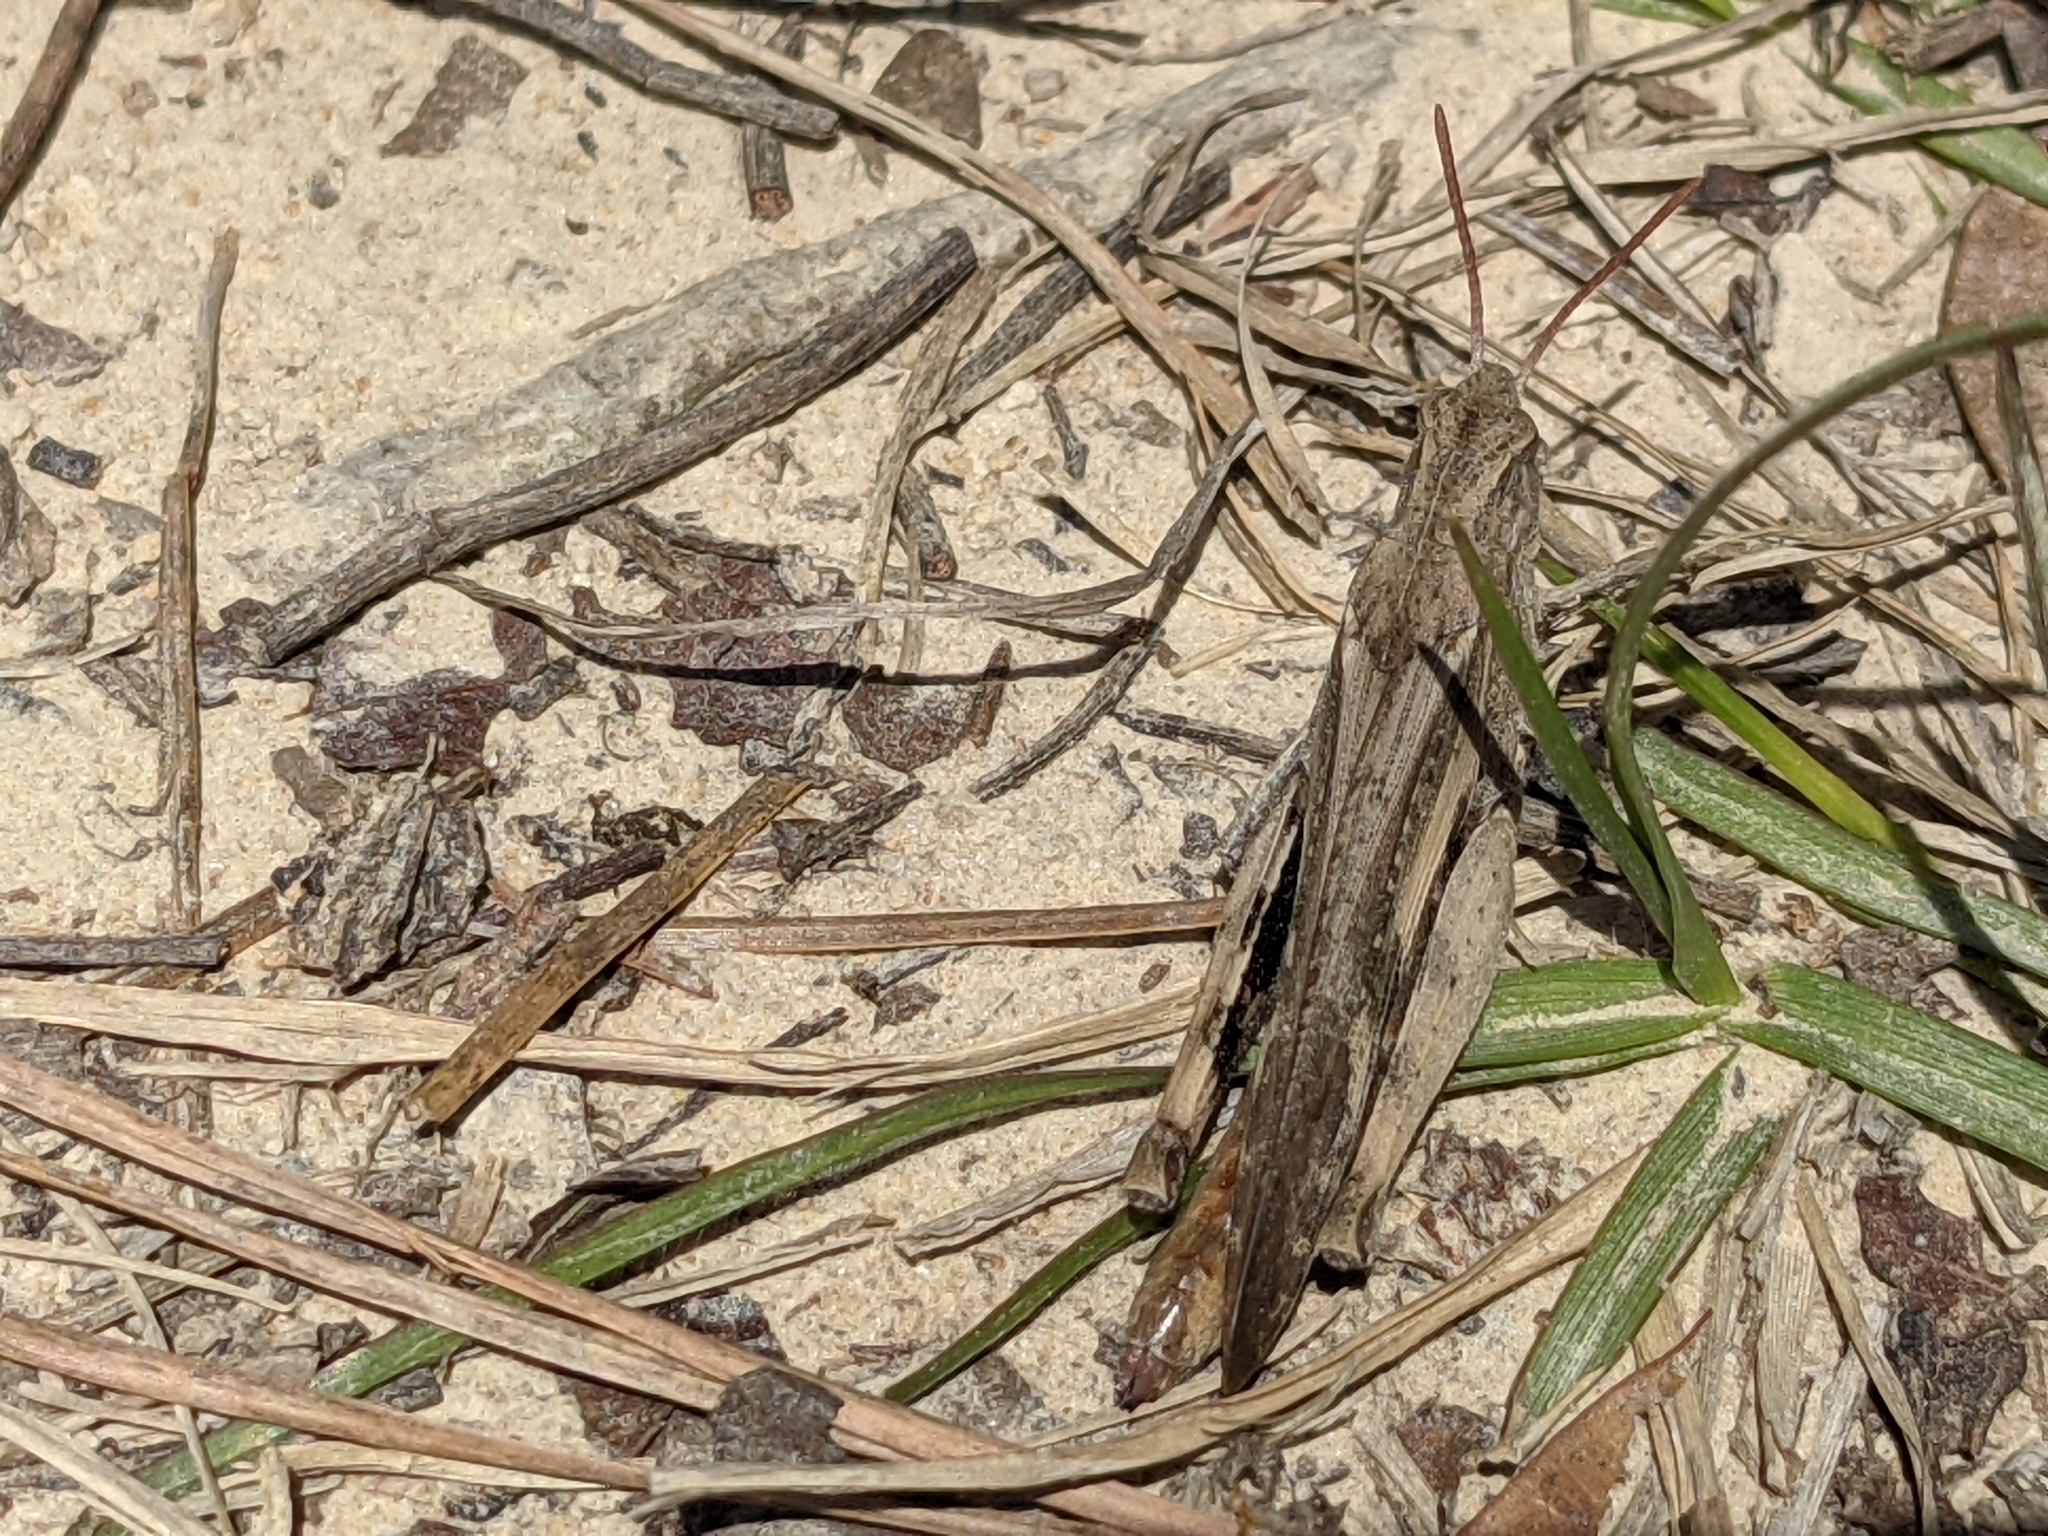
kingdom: Animalia
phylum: Arthropoda
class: Insecta
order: Orthoptera
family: Acrididae
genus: Chortophaga
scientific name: Chortophaga viridifasciata
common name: Green-striped grasshopper
